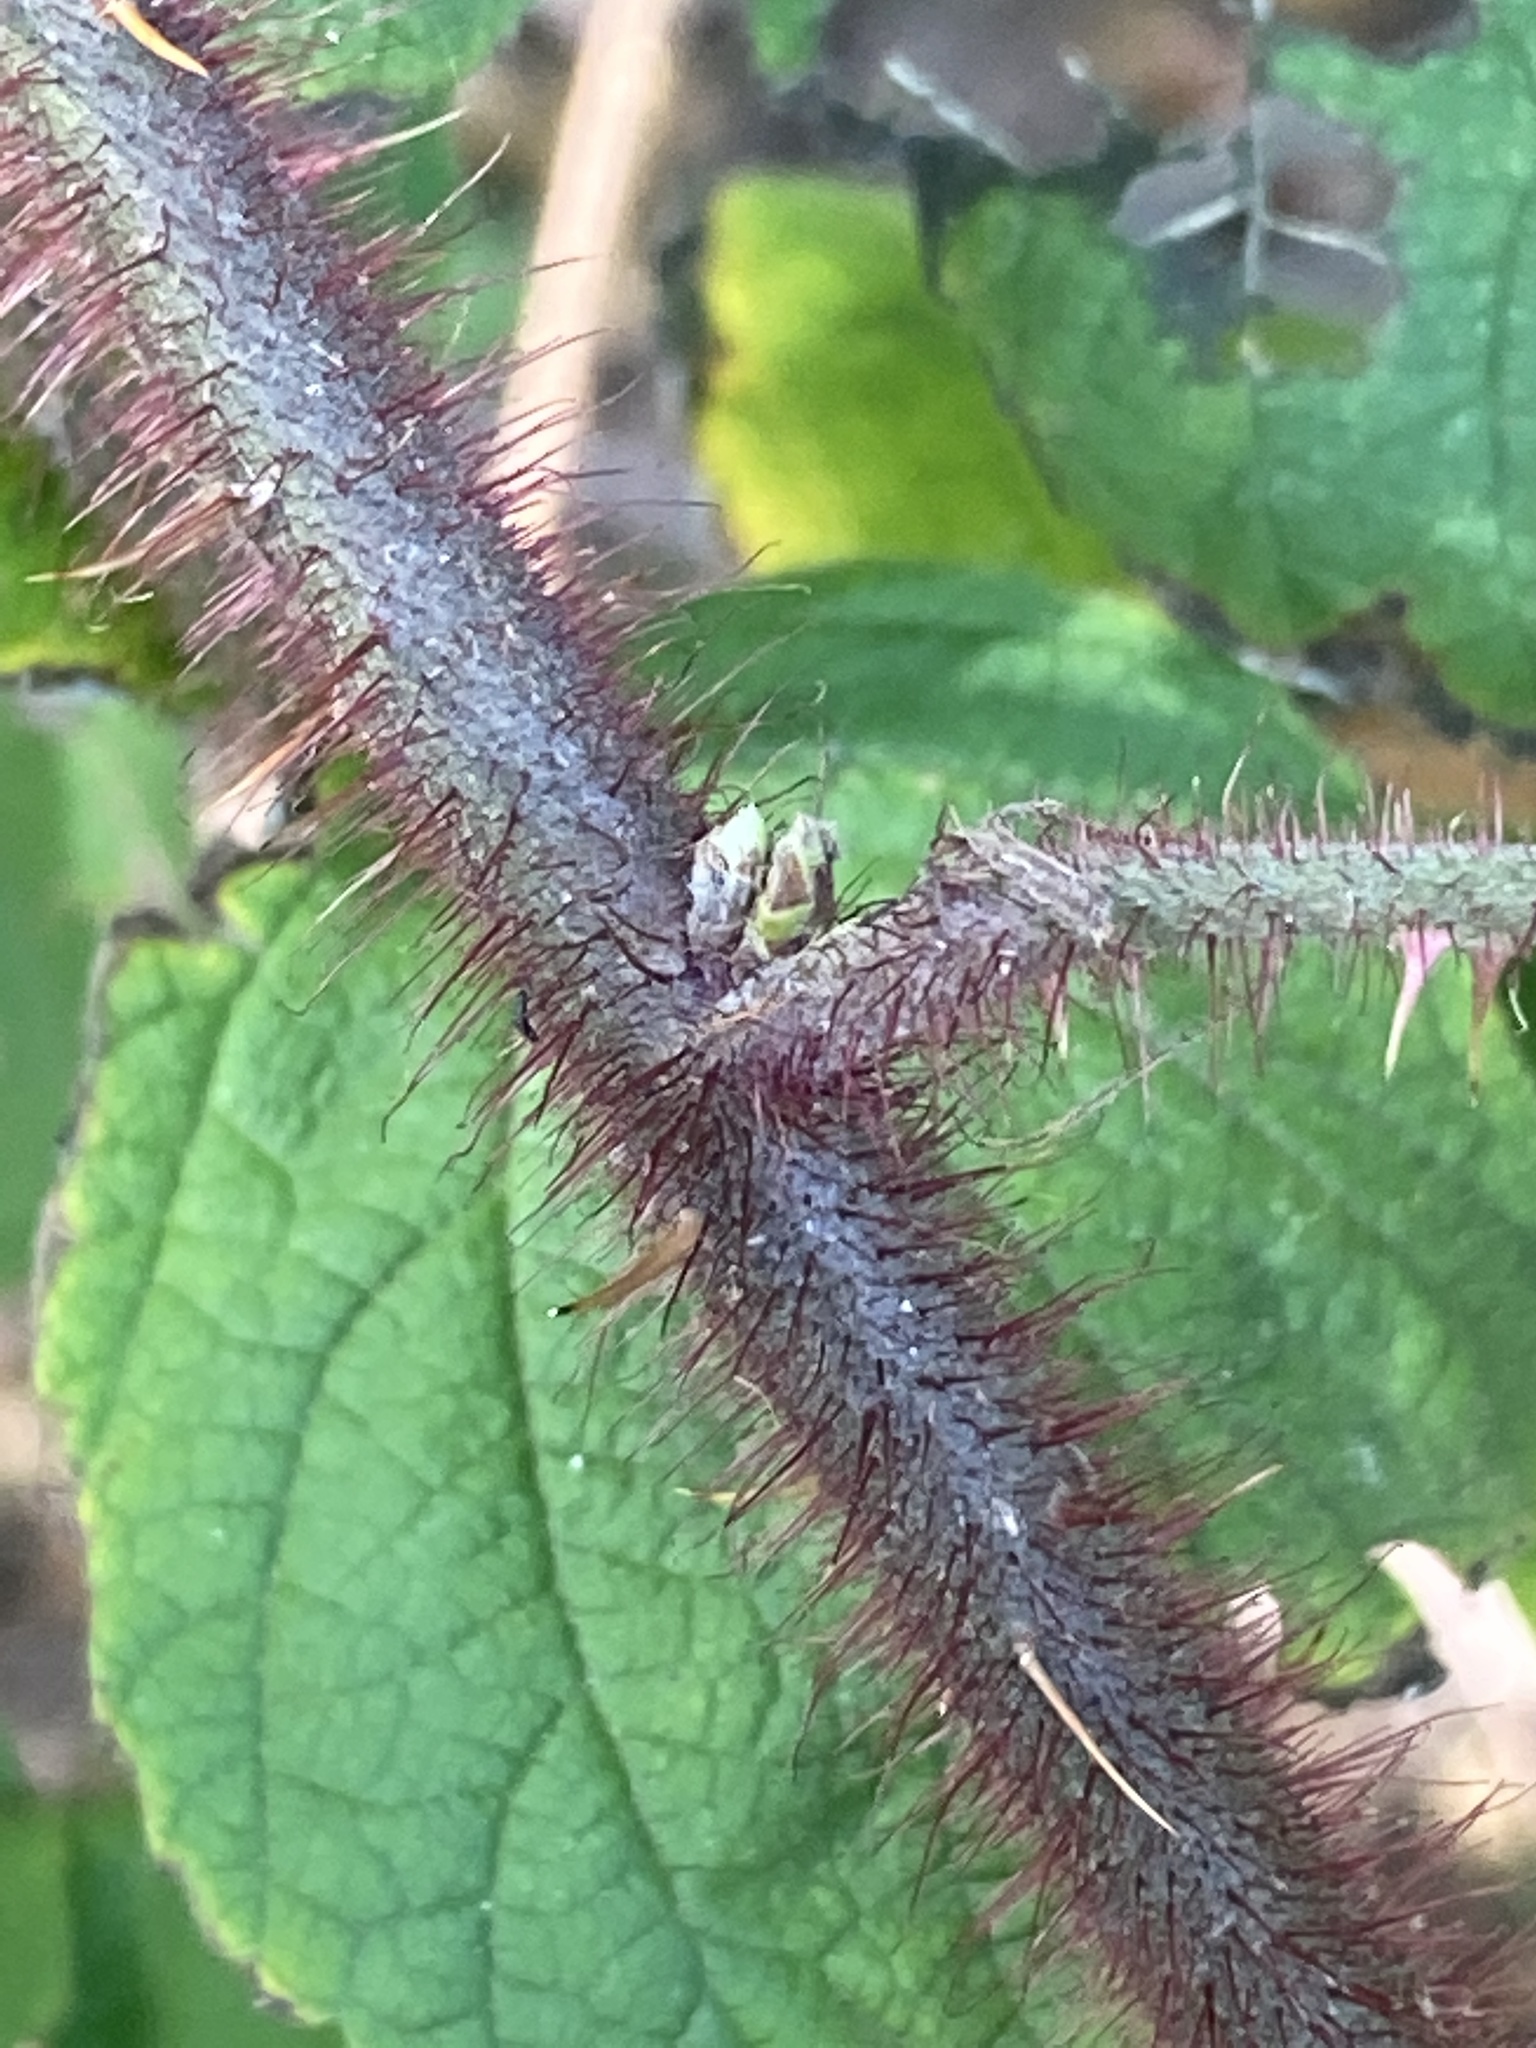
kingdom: Plantae
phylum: Tracheophyta
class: Magnoliopsida
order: Rosales
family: Rosaceae
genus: Rubus
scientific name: Rubus phoenicolasius
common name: Japanese wineberry
